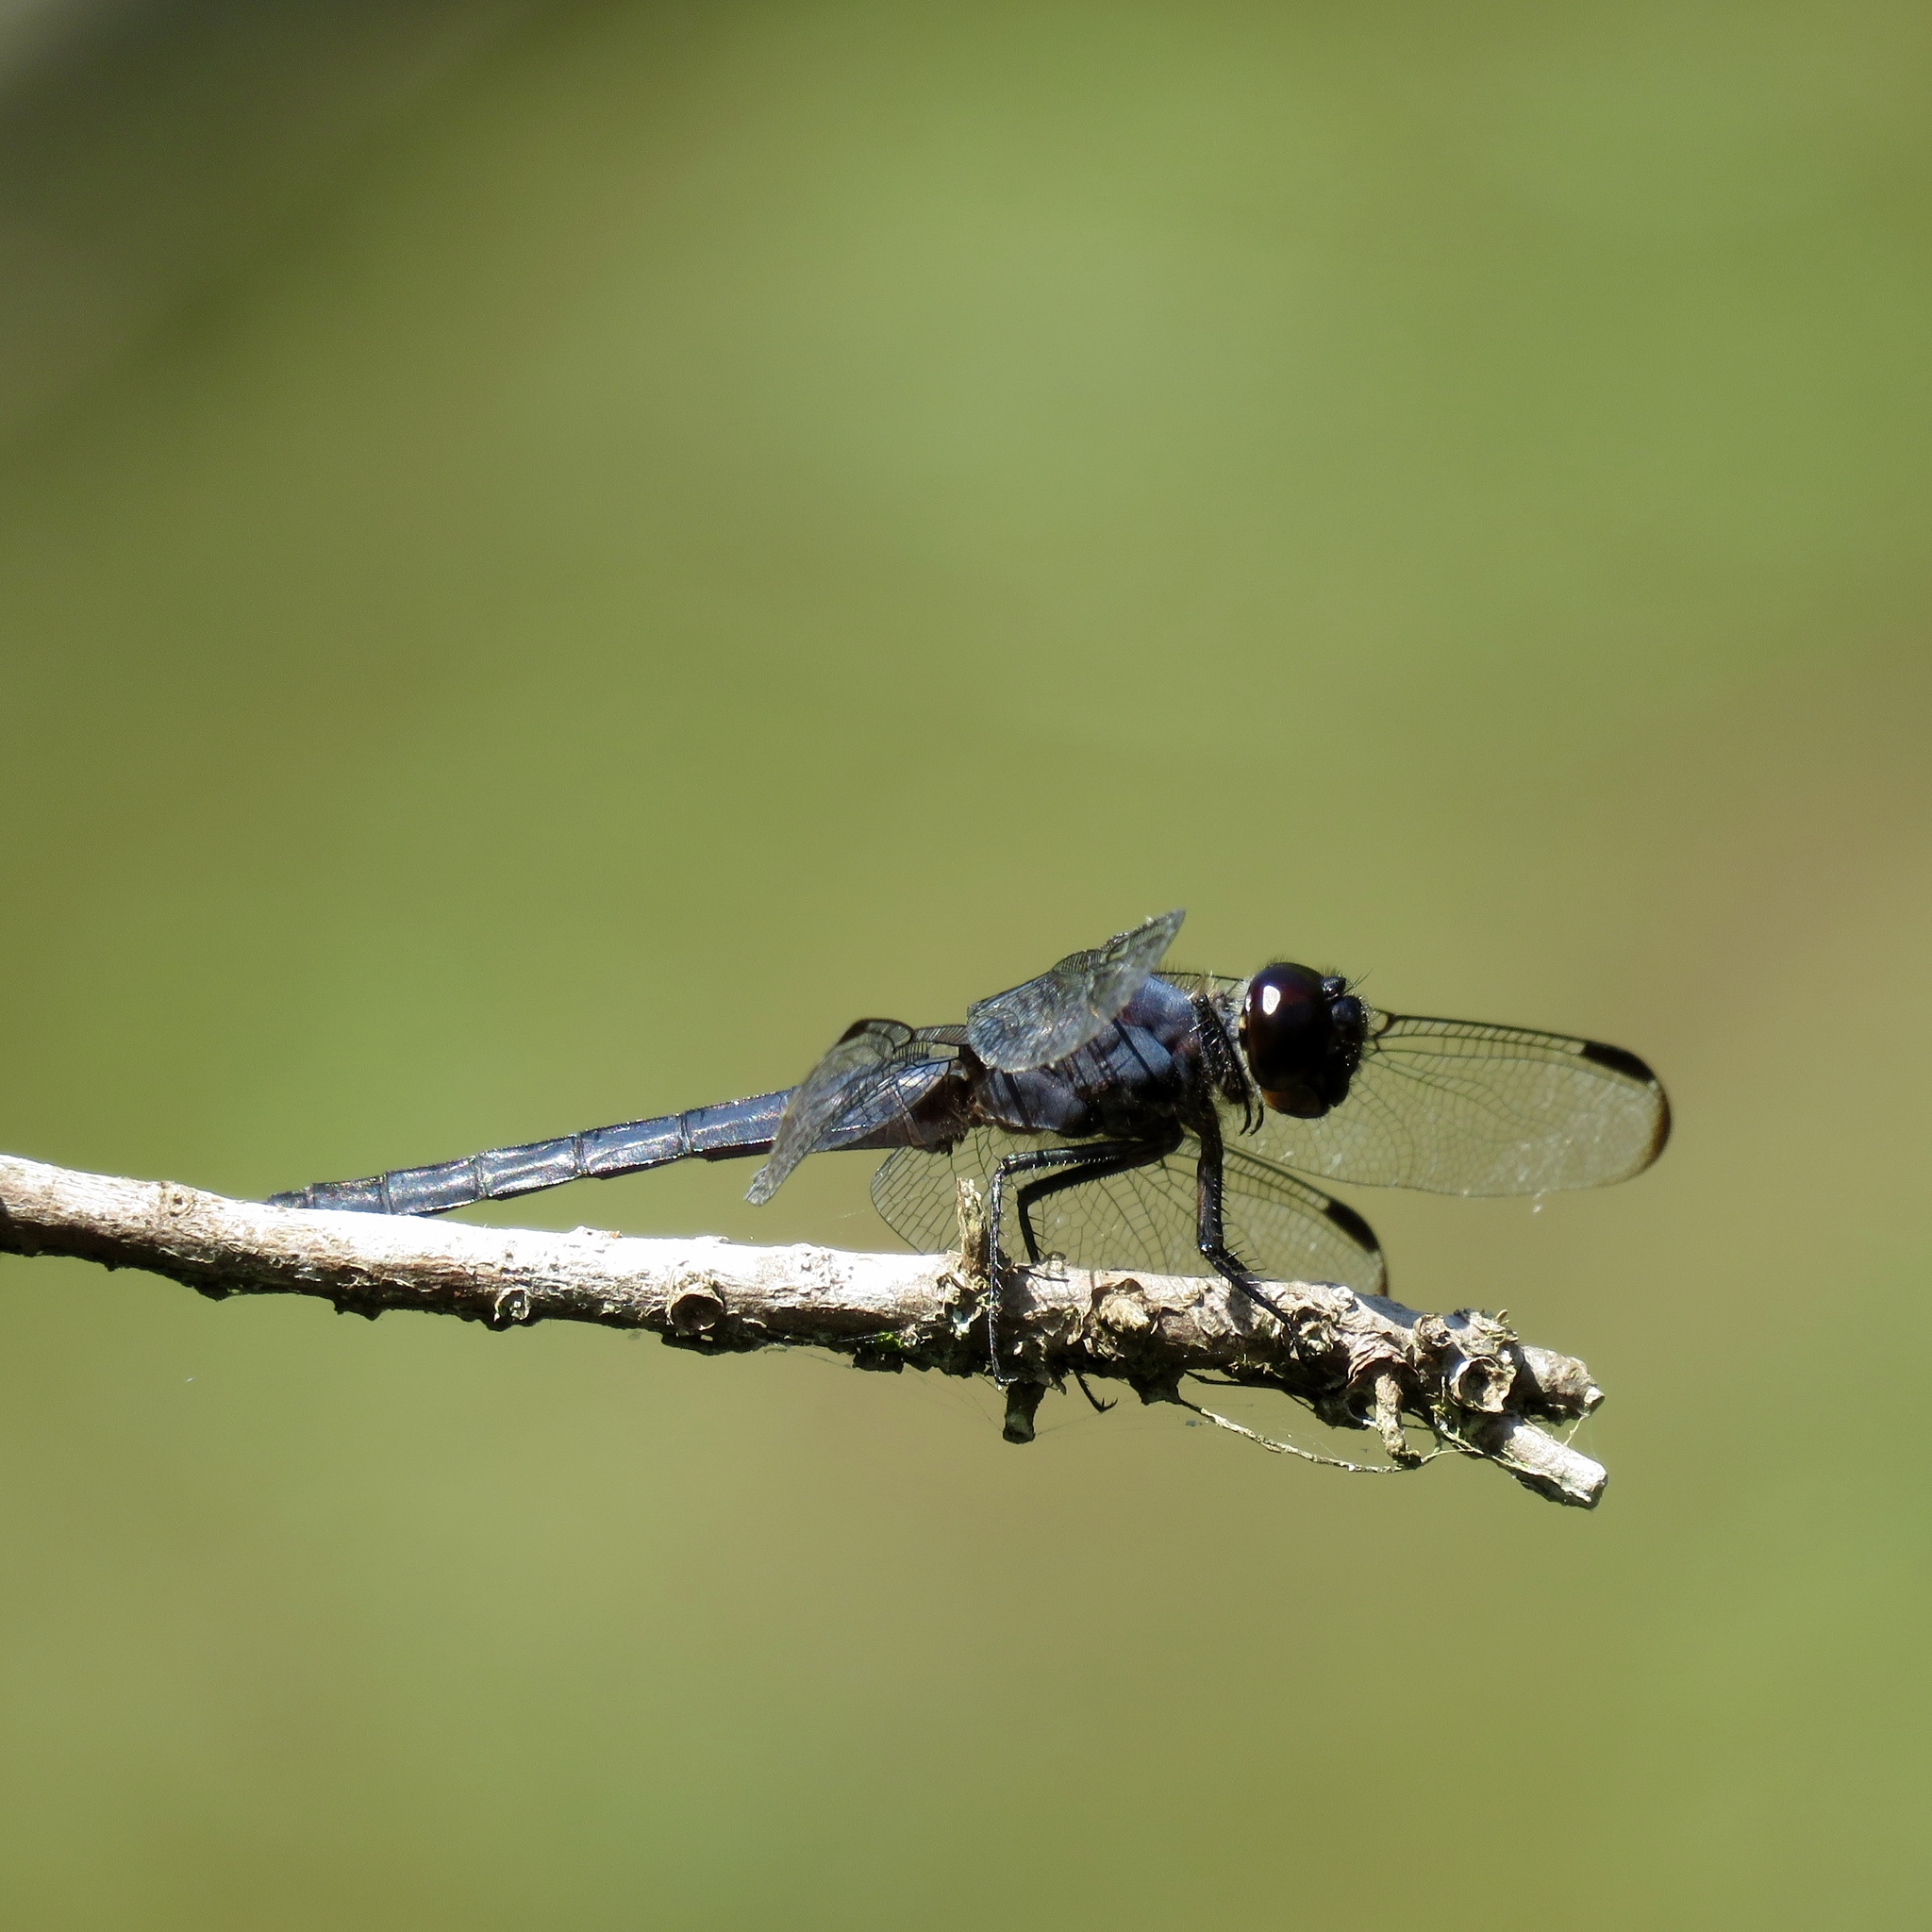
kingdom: Animalia
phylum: Arthropoda
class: Insecta
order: Odonata
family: Libellulidae
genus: Libellula
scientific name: Libellula incesta
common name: Slaty skimmer
